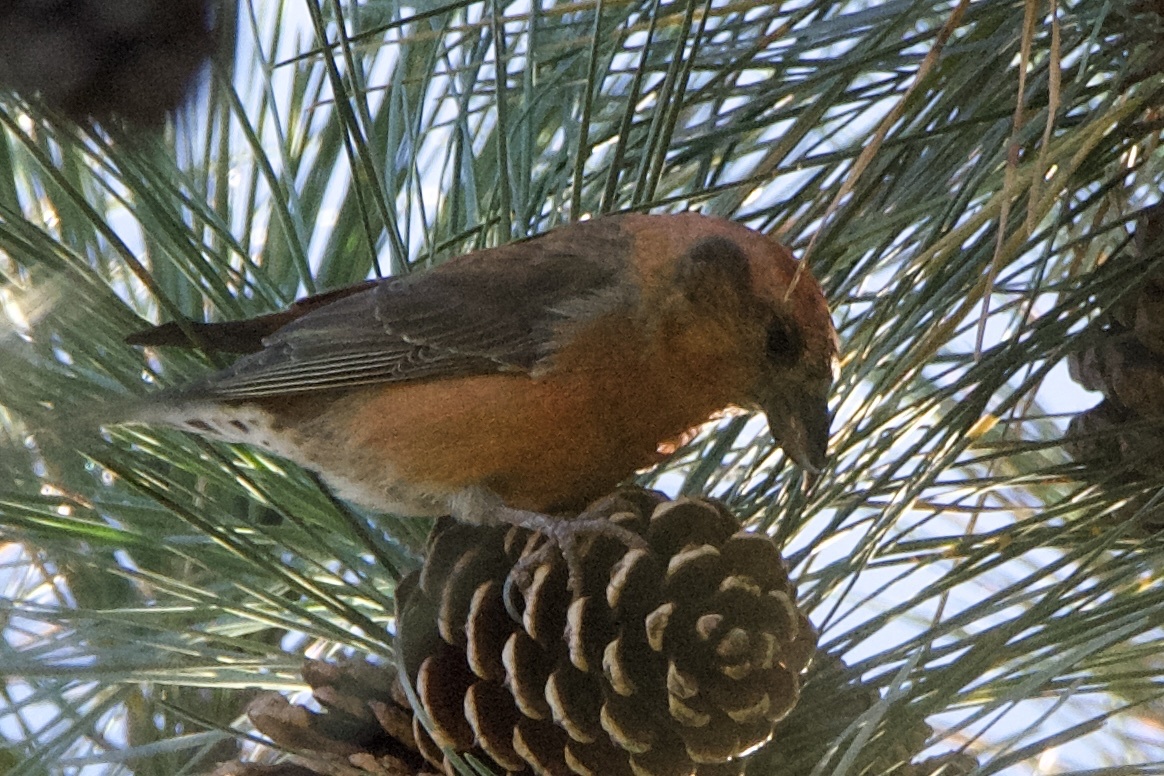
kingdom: Animalia
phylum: Chordata
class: Aves
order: Passeriformes
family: Fringillidae
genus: Loxia
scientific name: Loxia curvirostra
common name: Red crossbill
